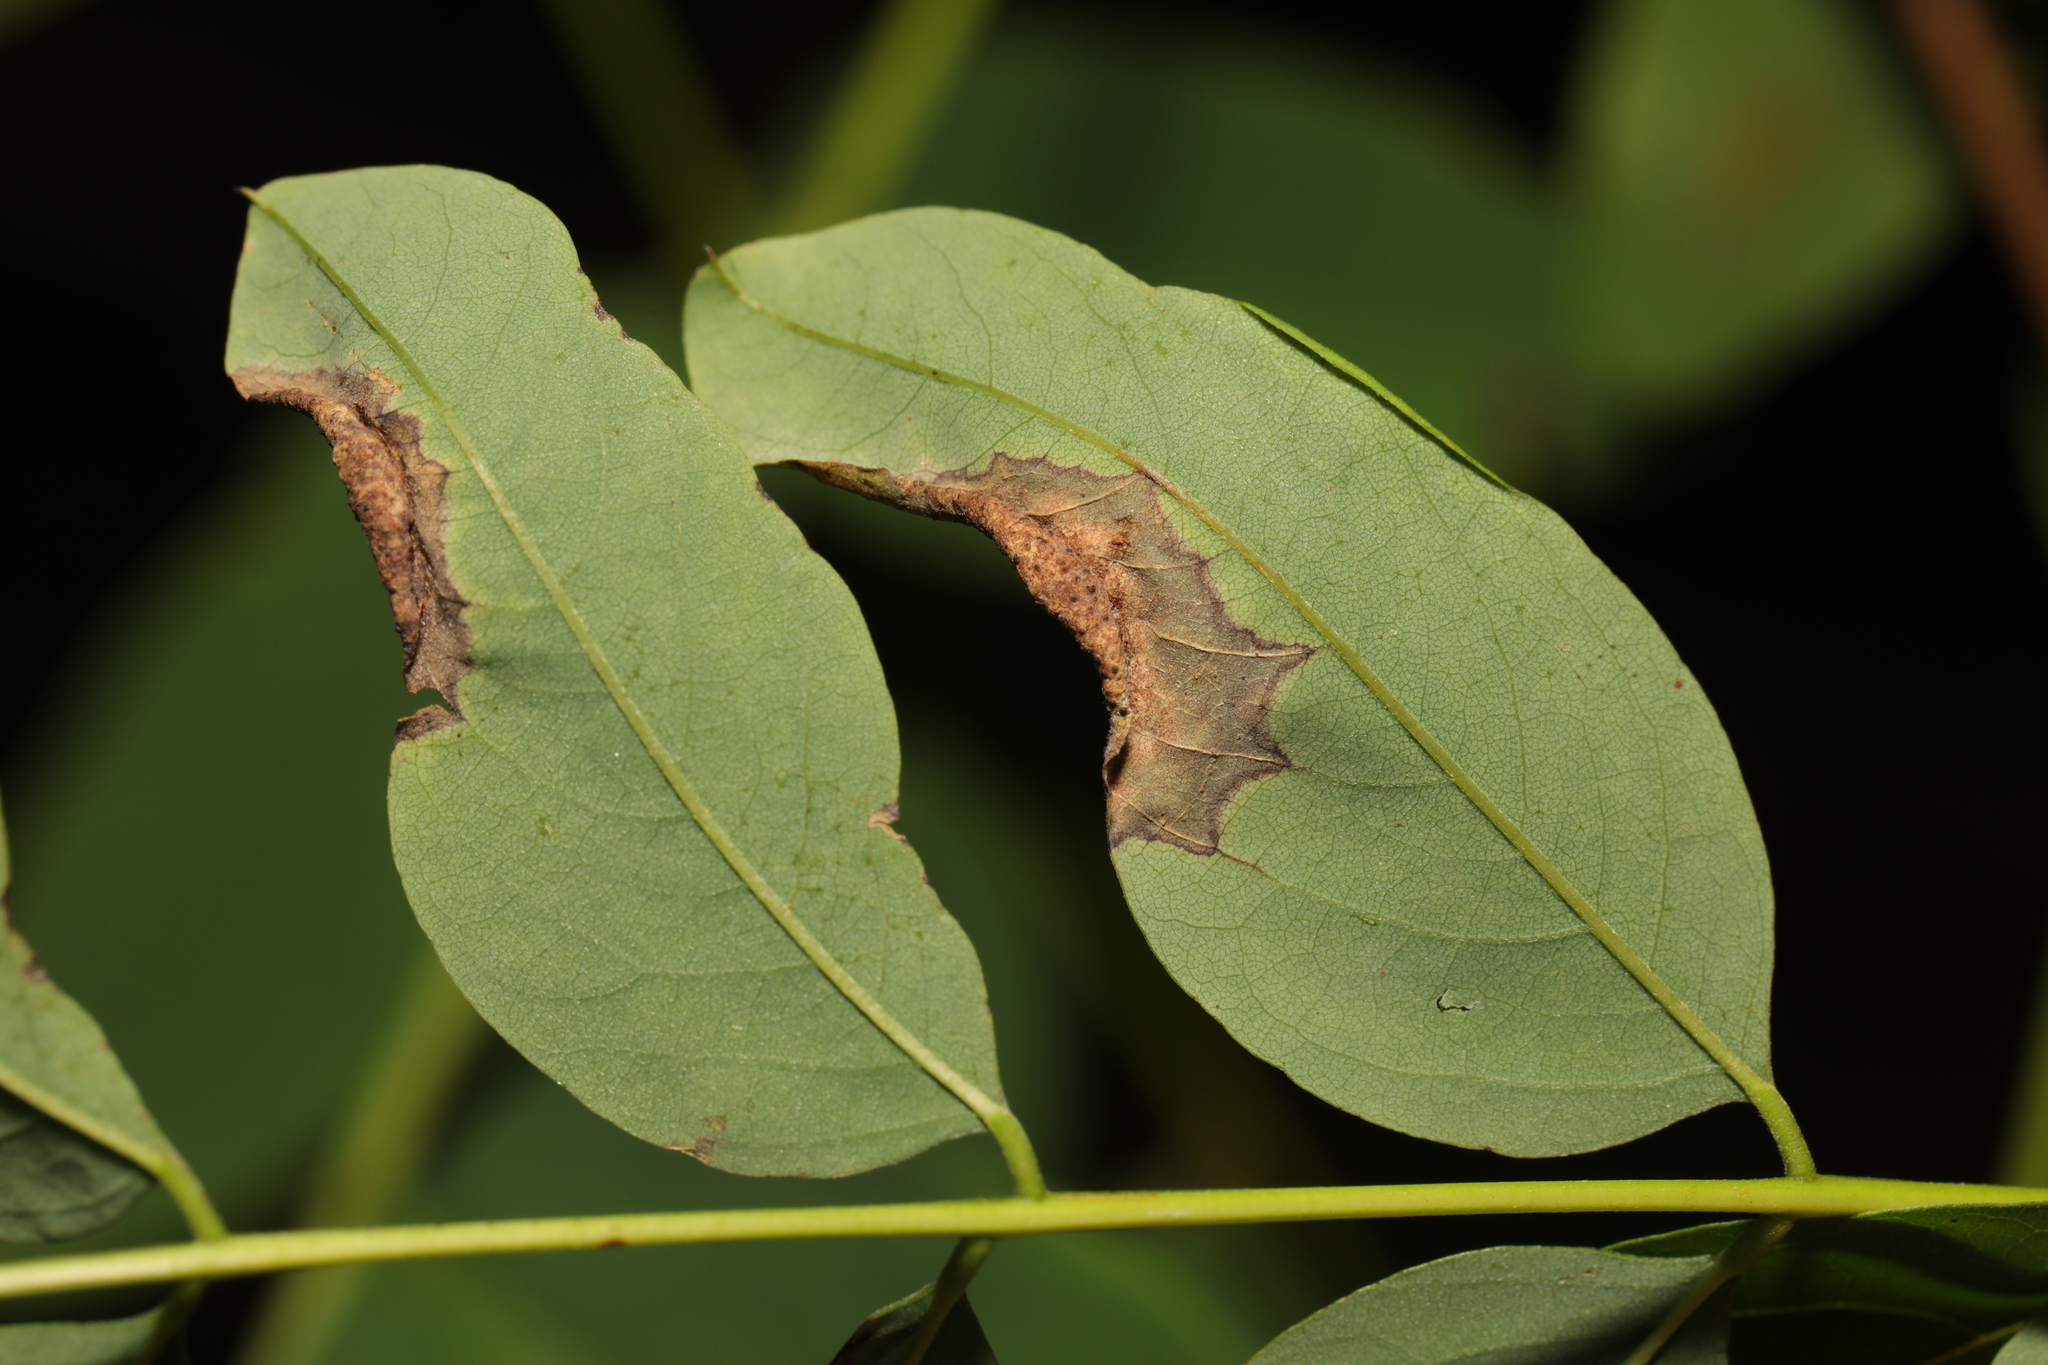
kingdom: Animalia
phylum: Arthropoda
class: Insecta
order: Diptera
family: Cecidomyiidae
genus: Obolodiplosis
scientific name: Obolodiplosis robiniae
